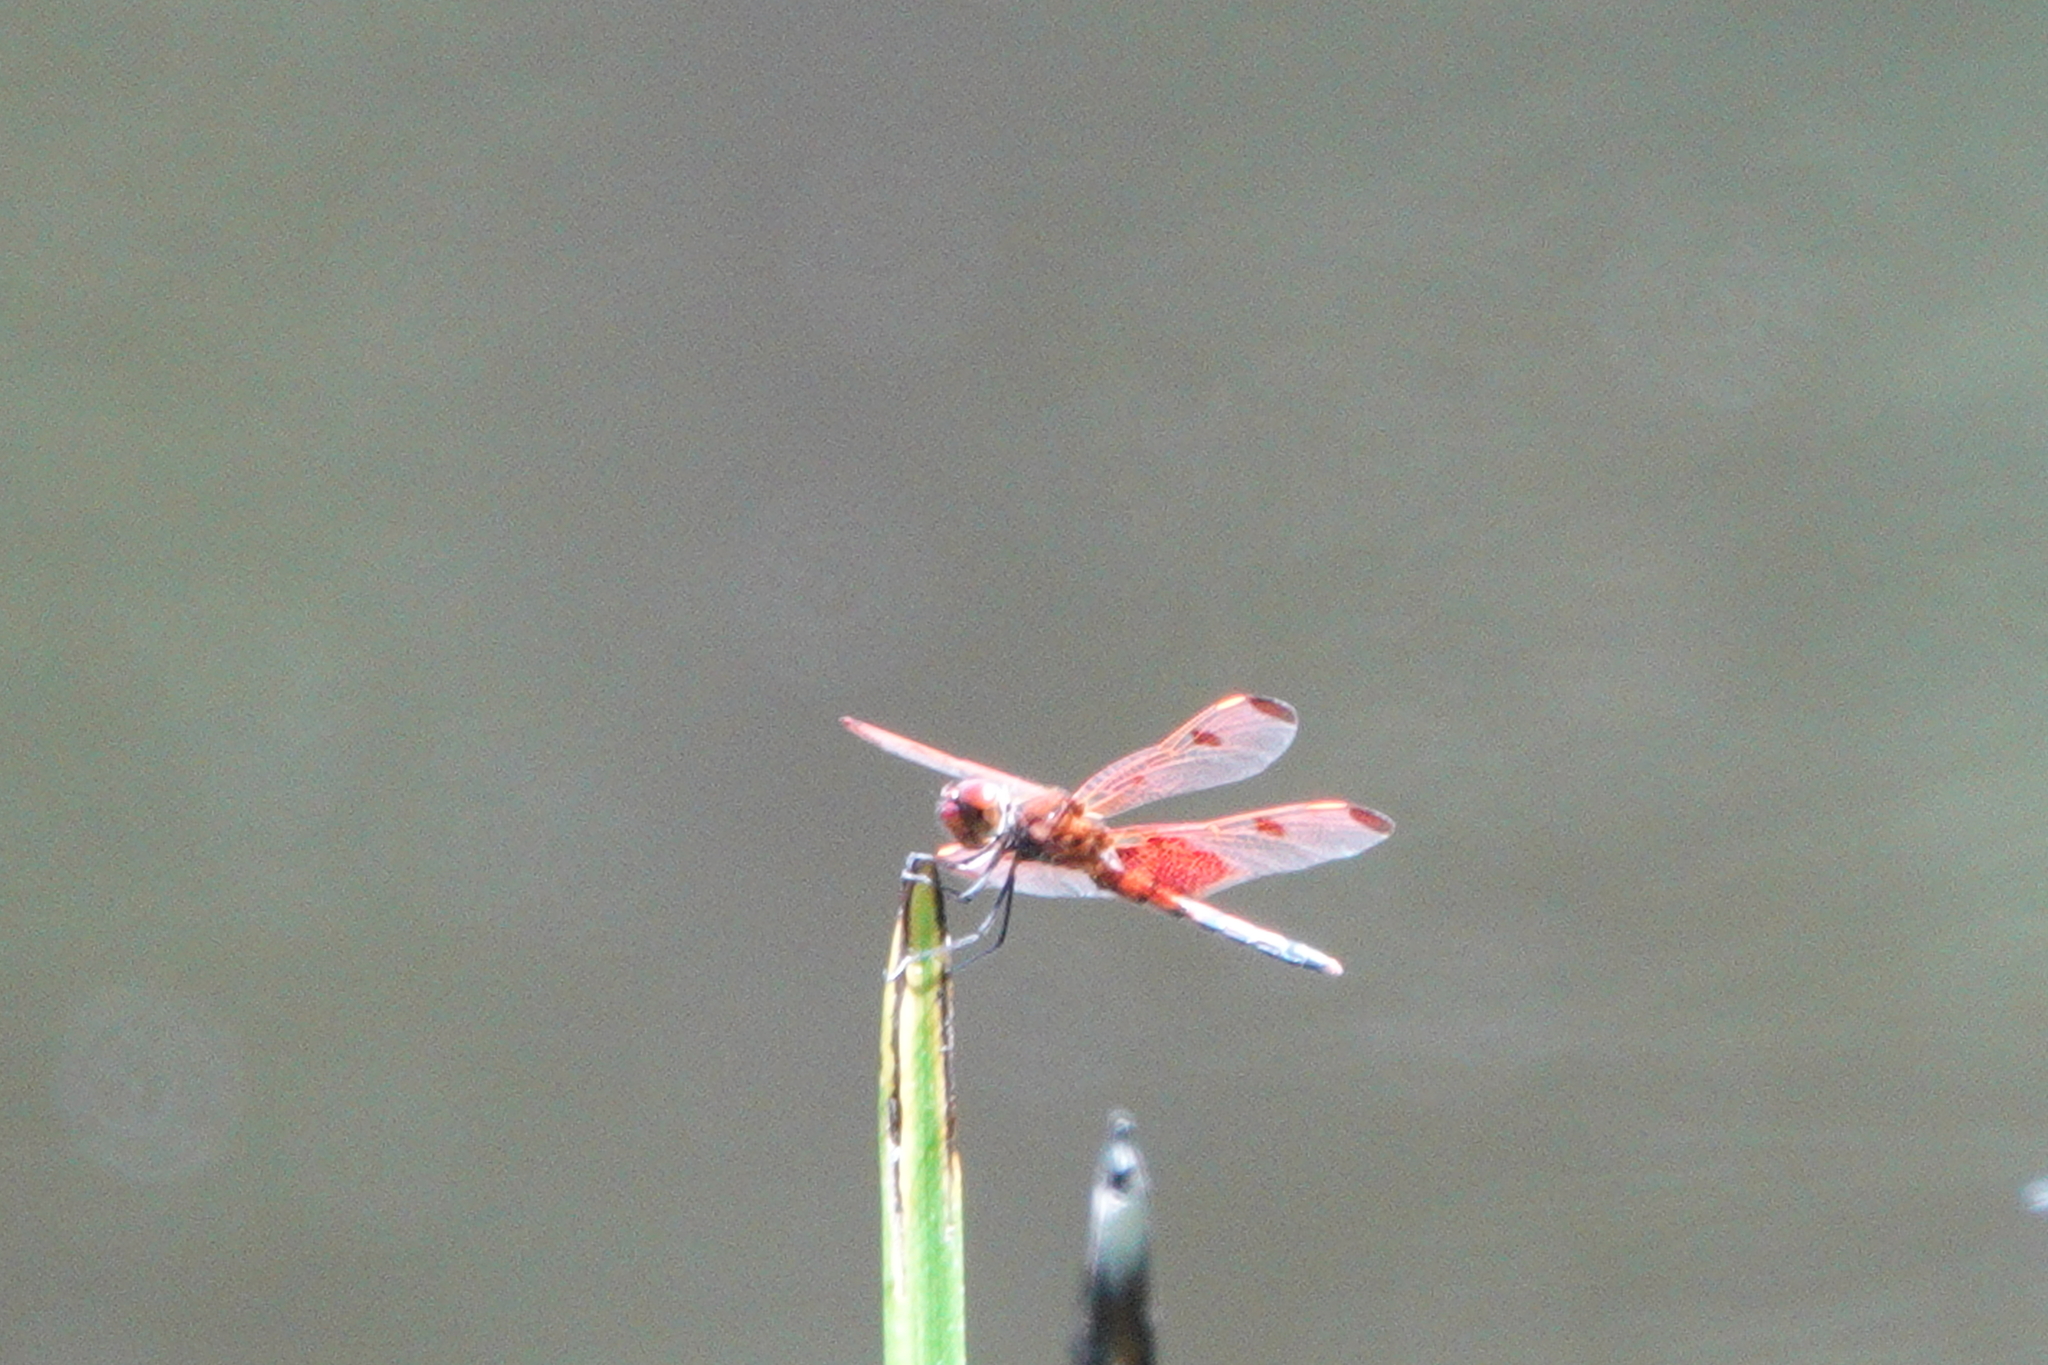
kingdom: Animalia
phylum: Arthropoda
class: Insecta
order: Odonata
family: Libellulidae
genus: Celithemis
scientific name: Celithemis elisa
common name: Calico pennant
